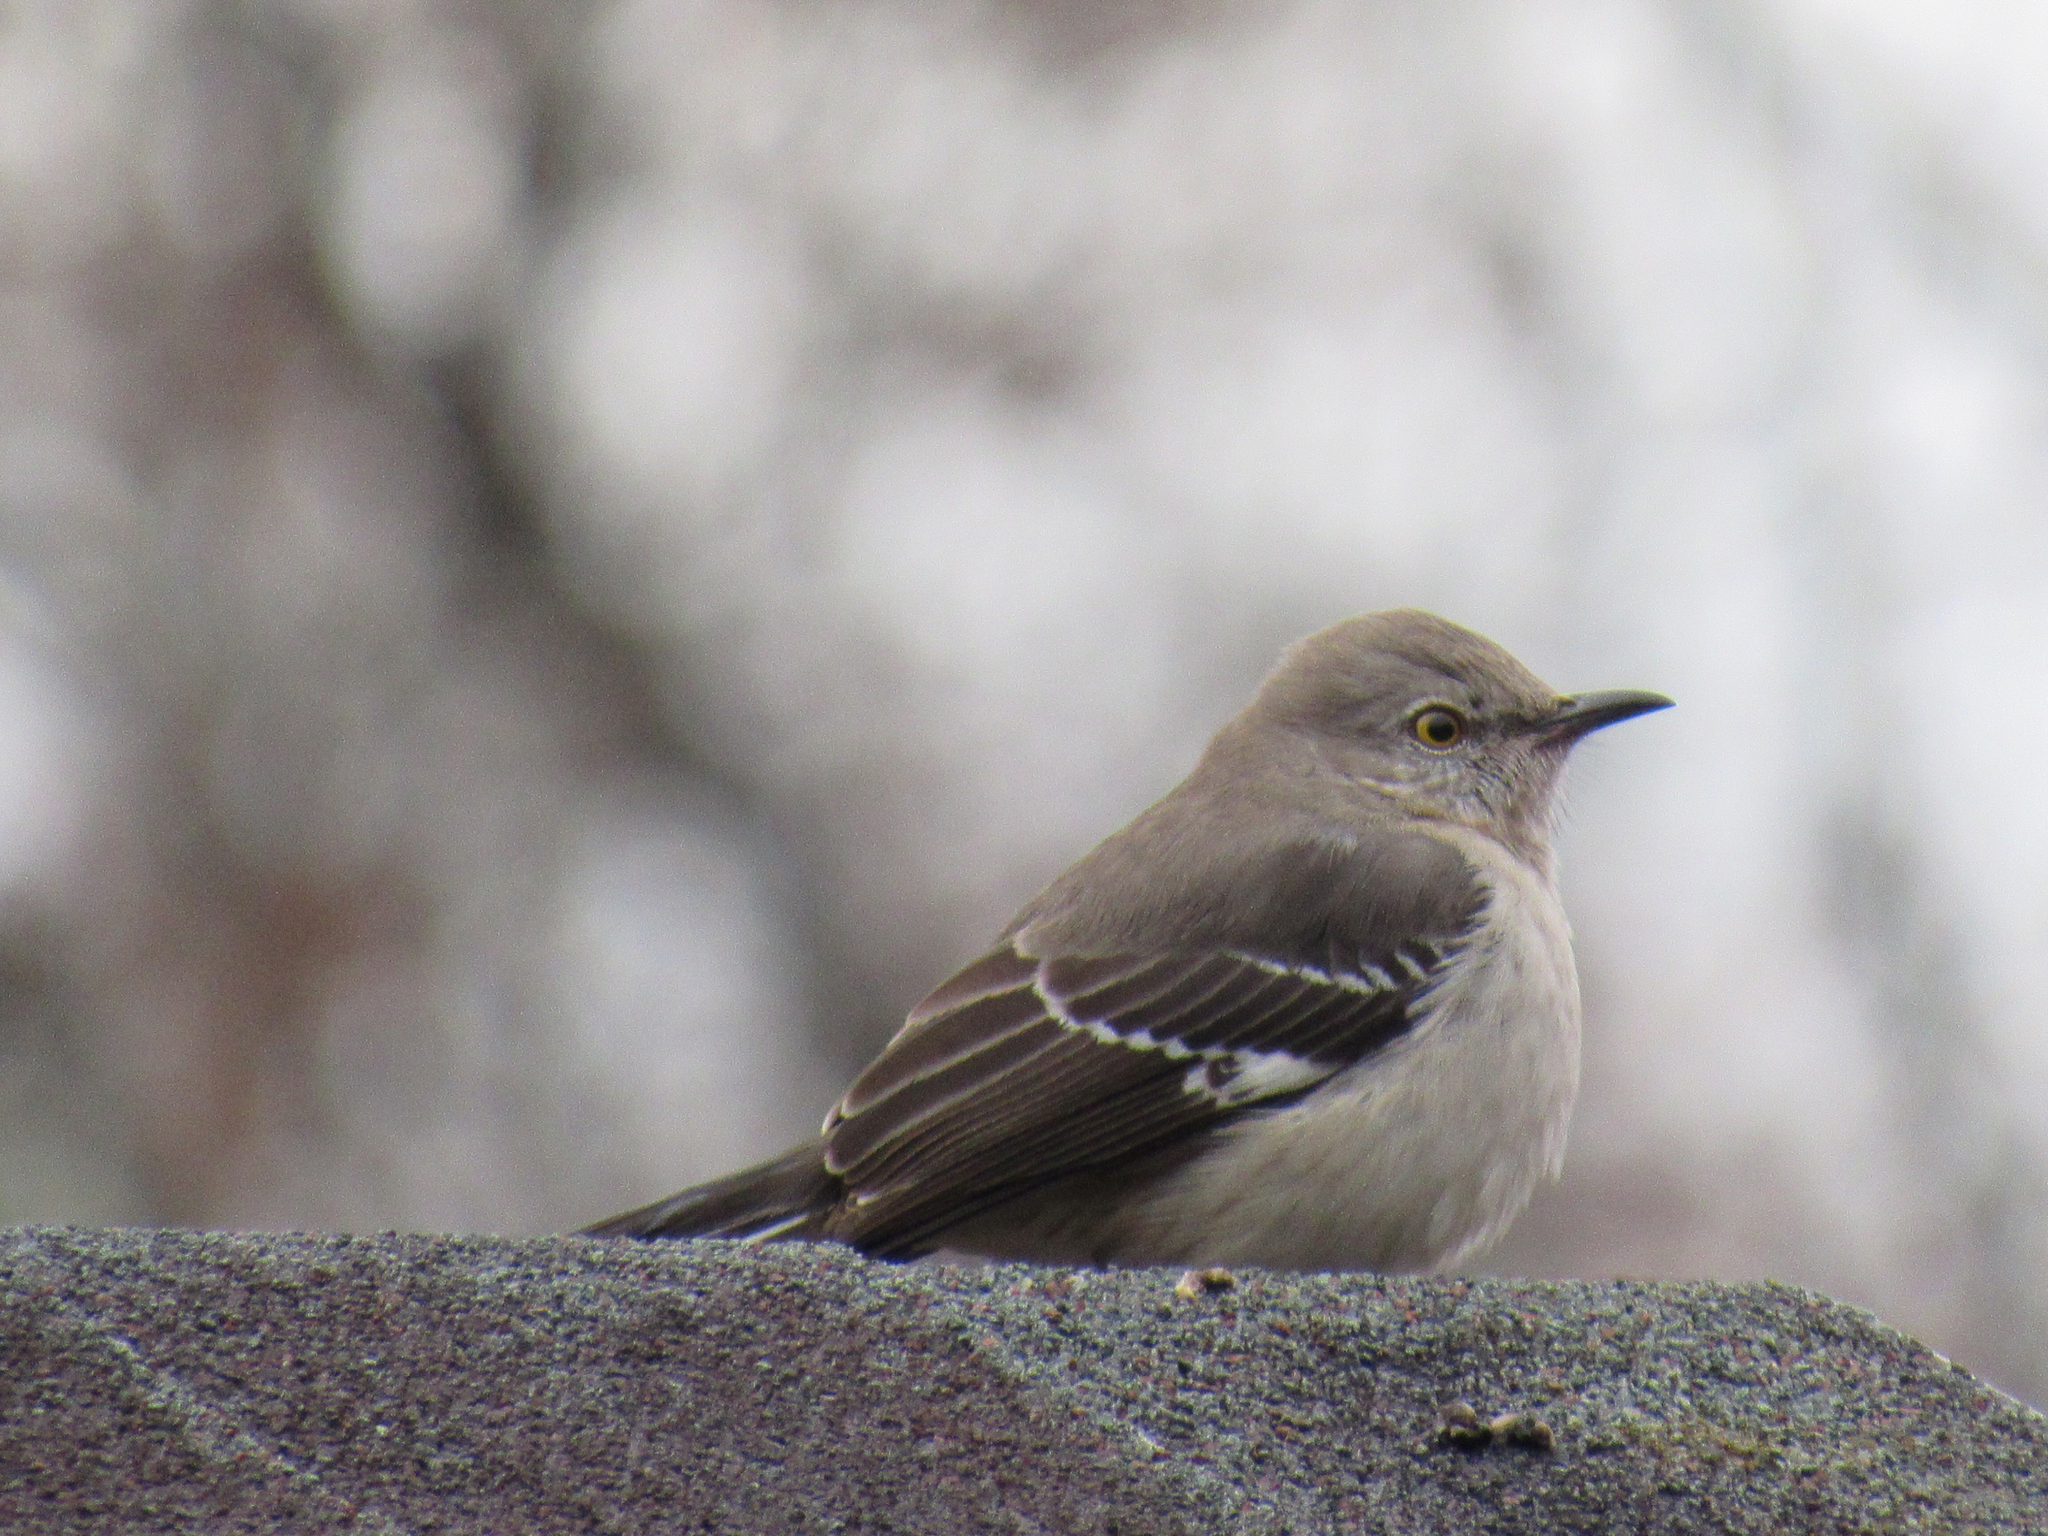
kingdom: Animalia
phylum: Chordata
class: Aves
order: Passeriformes
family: Mimidae
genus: Mimus
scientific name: Mimus polyglottos
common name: Northern mockingbird
